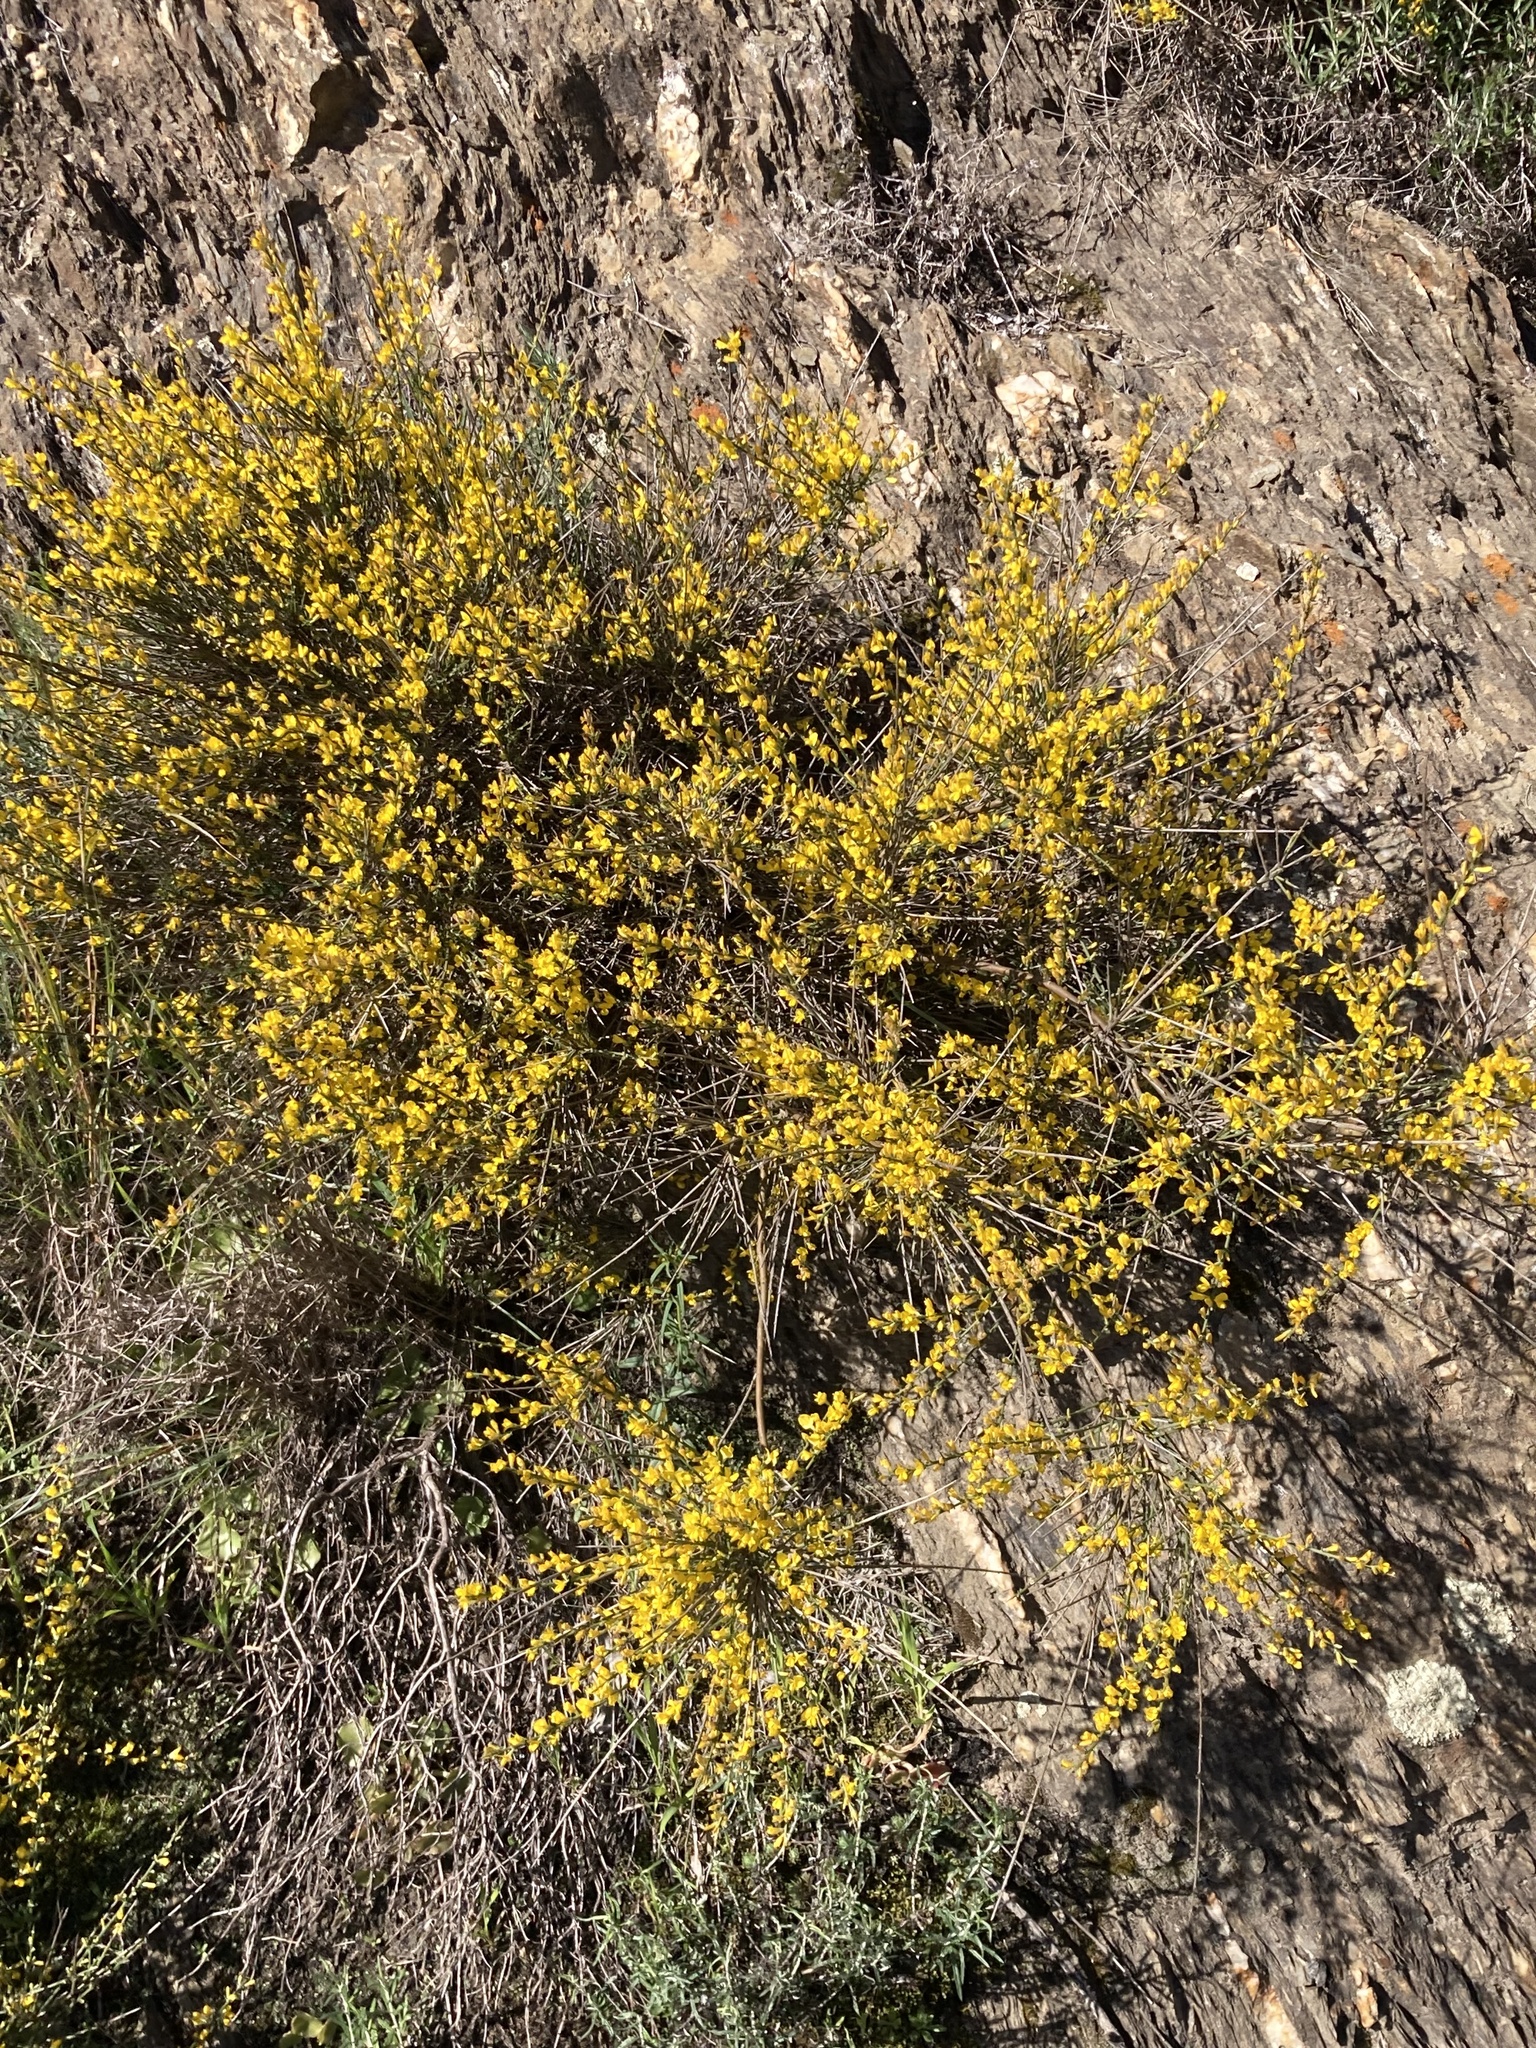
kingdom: Plantae
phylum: Tracheophyta
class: Magnoliopsida
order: Fabales
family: Fabaceae
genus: Genista
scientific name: Genista polyanthos
